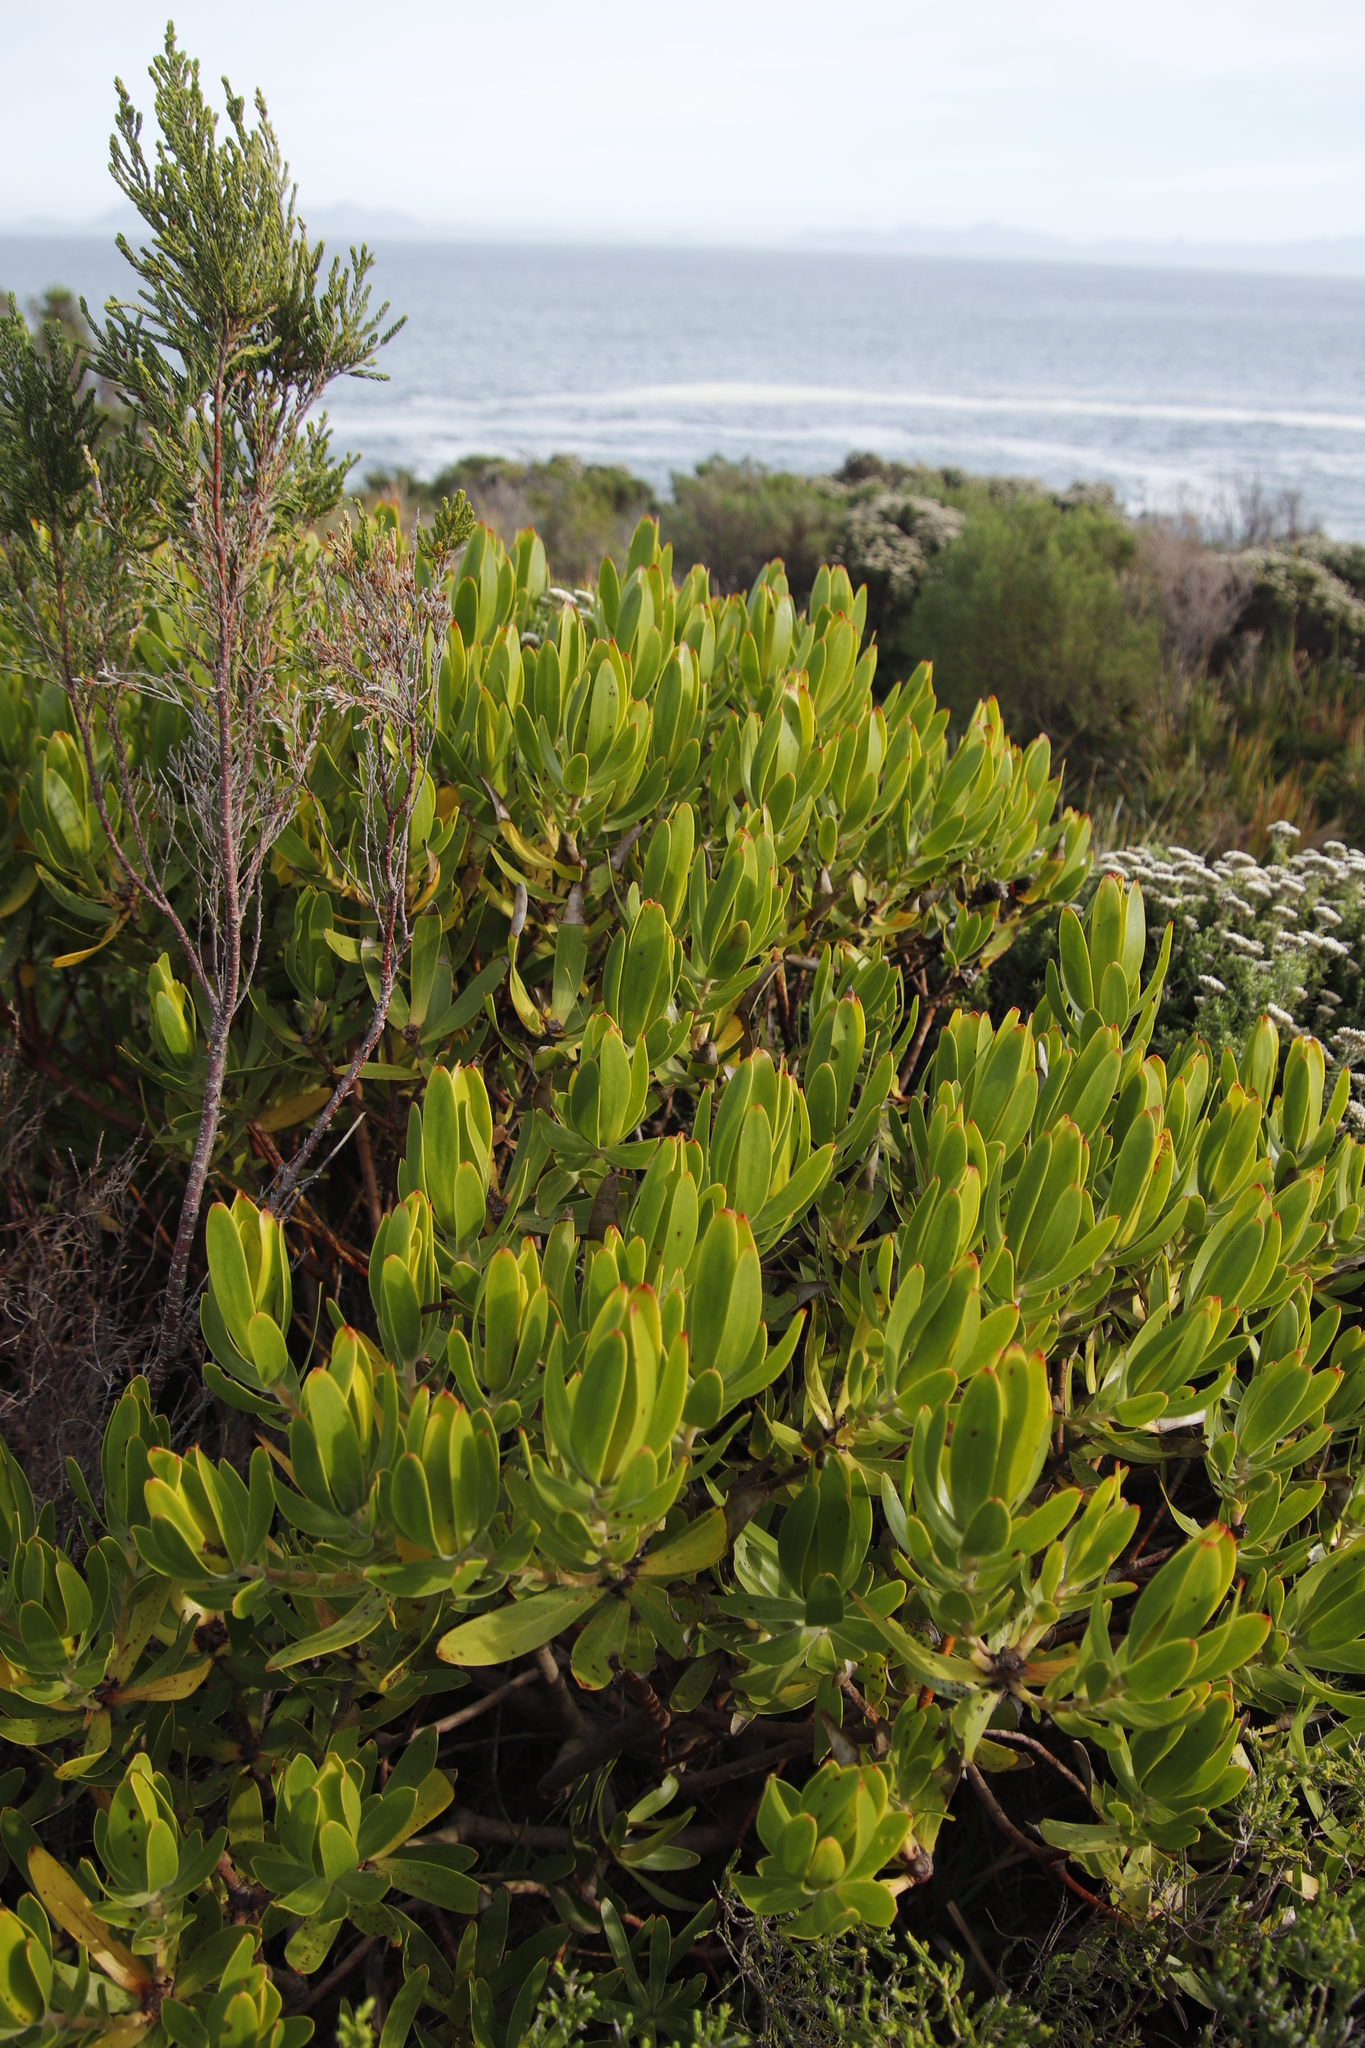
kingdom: Plantae
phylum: Tracheophyta
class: Magnoliopsida
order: Proteales
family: Proteaceae
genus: Leucadendron
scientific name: Leucadendron laureolum
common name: Golden sunshinebush
